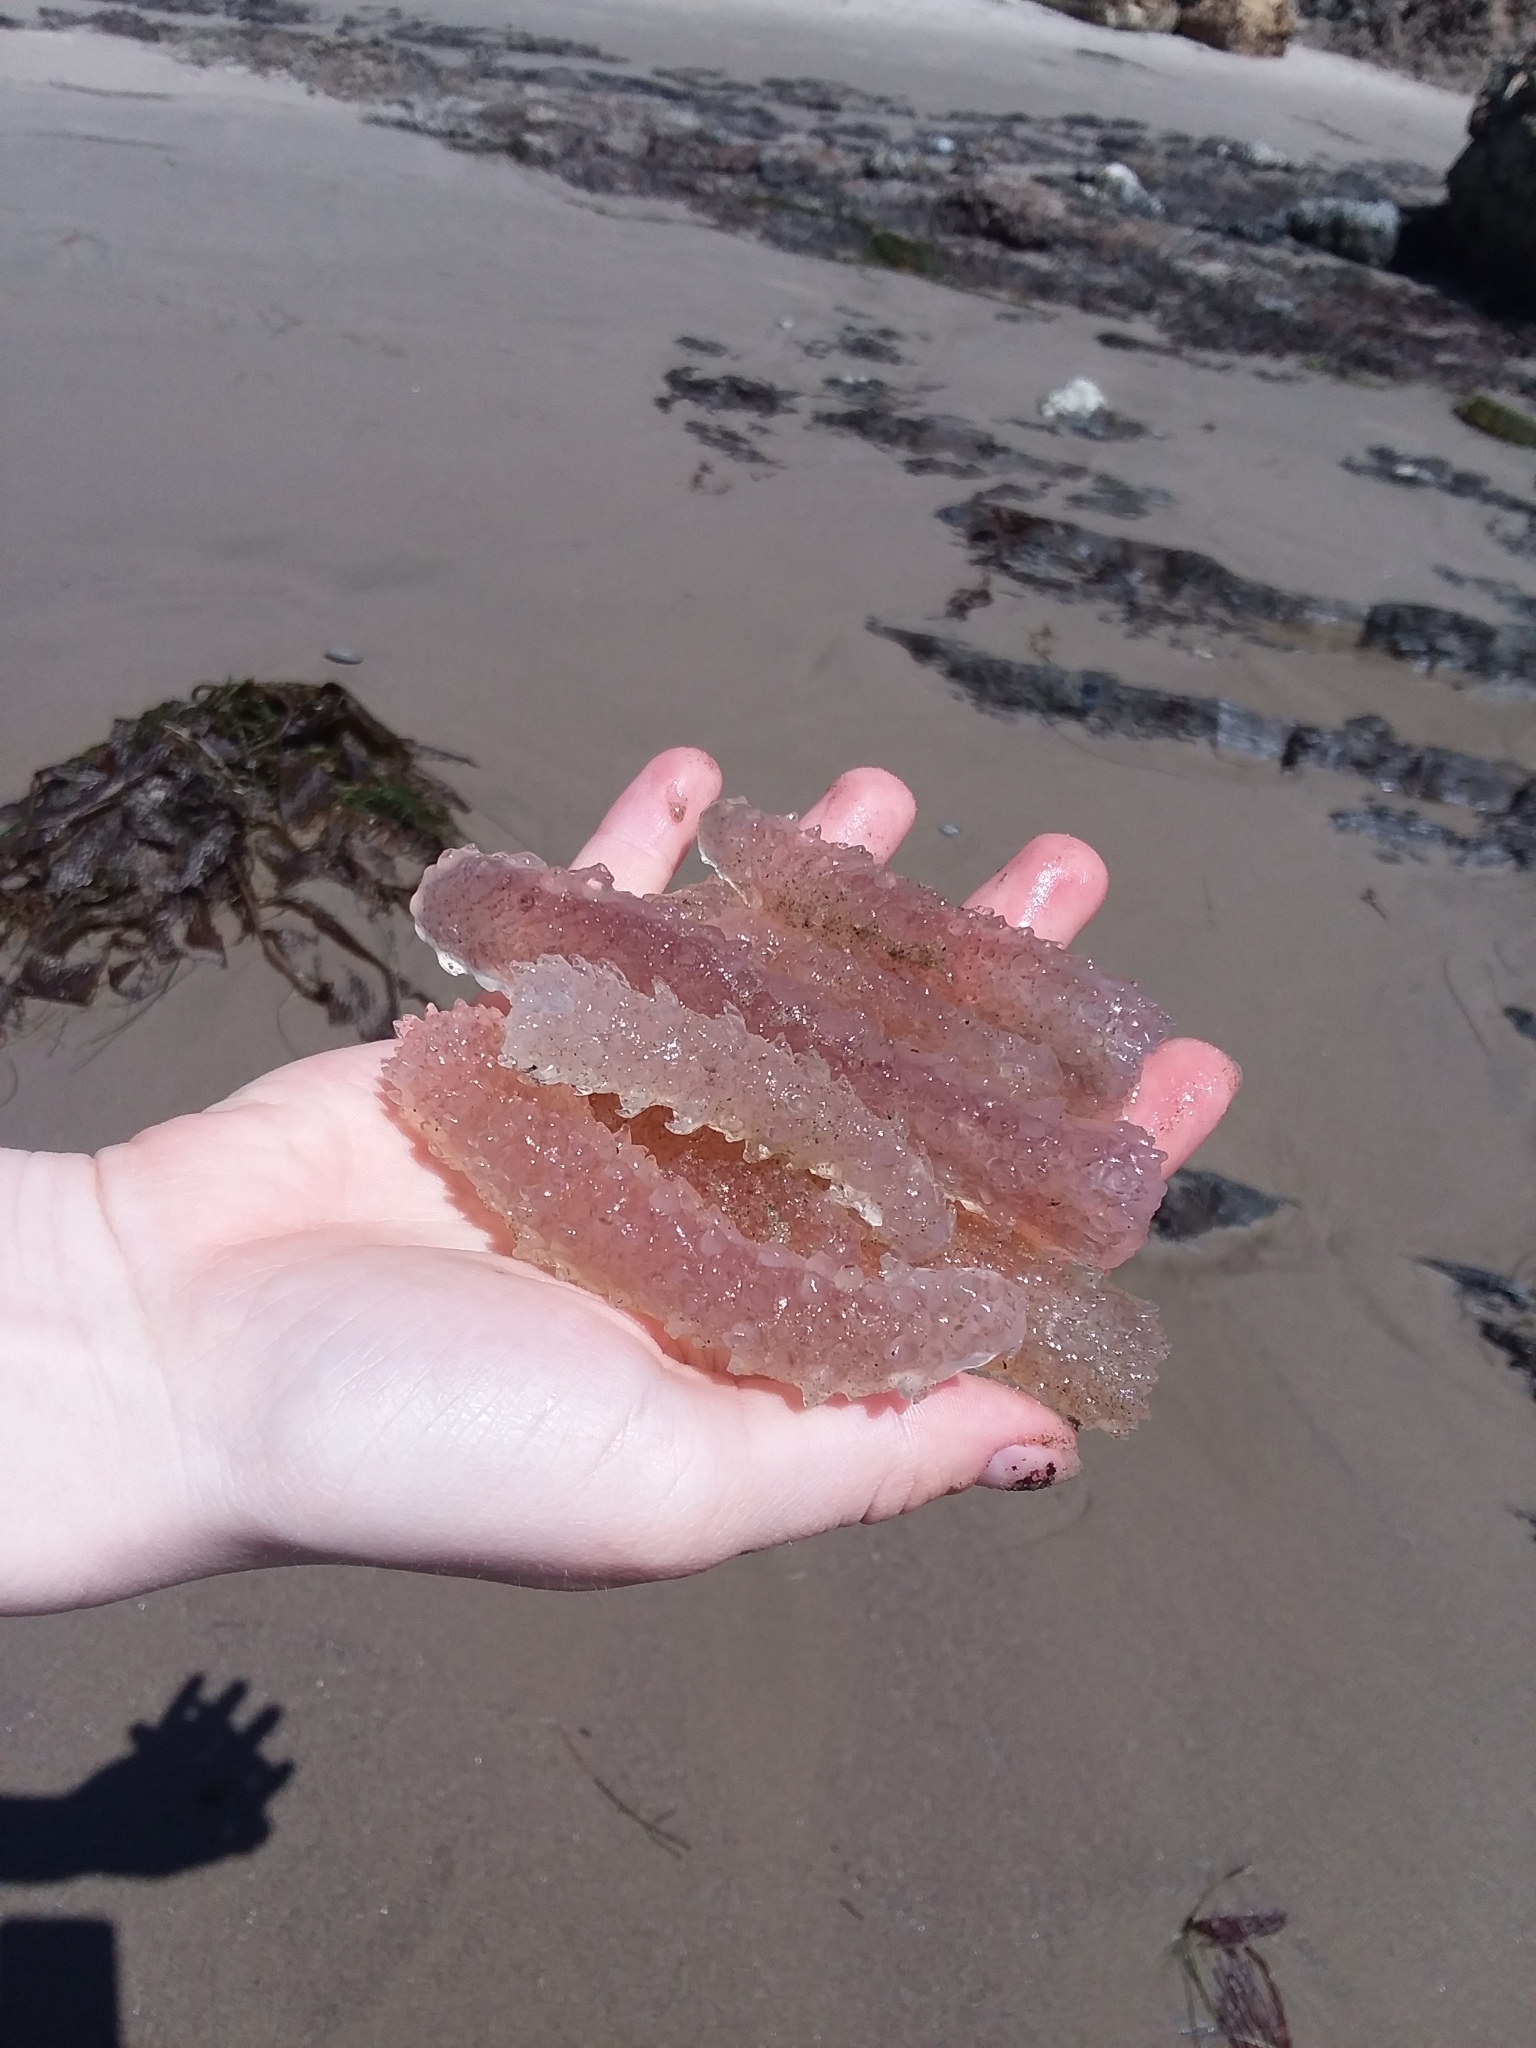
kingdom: Animalia
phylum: Chordata
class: Thaliacea
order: Pyrosomatida
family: Pyrosomatidae
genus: Pyrosoma
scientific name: Pyrosoma atlanticum
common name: Atlantic pyrosomes
